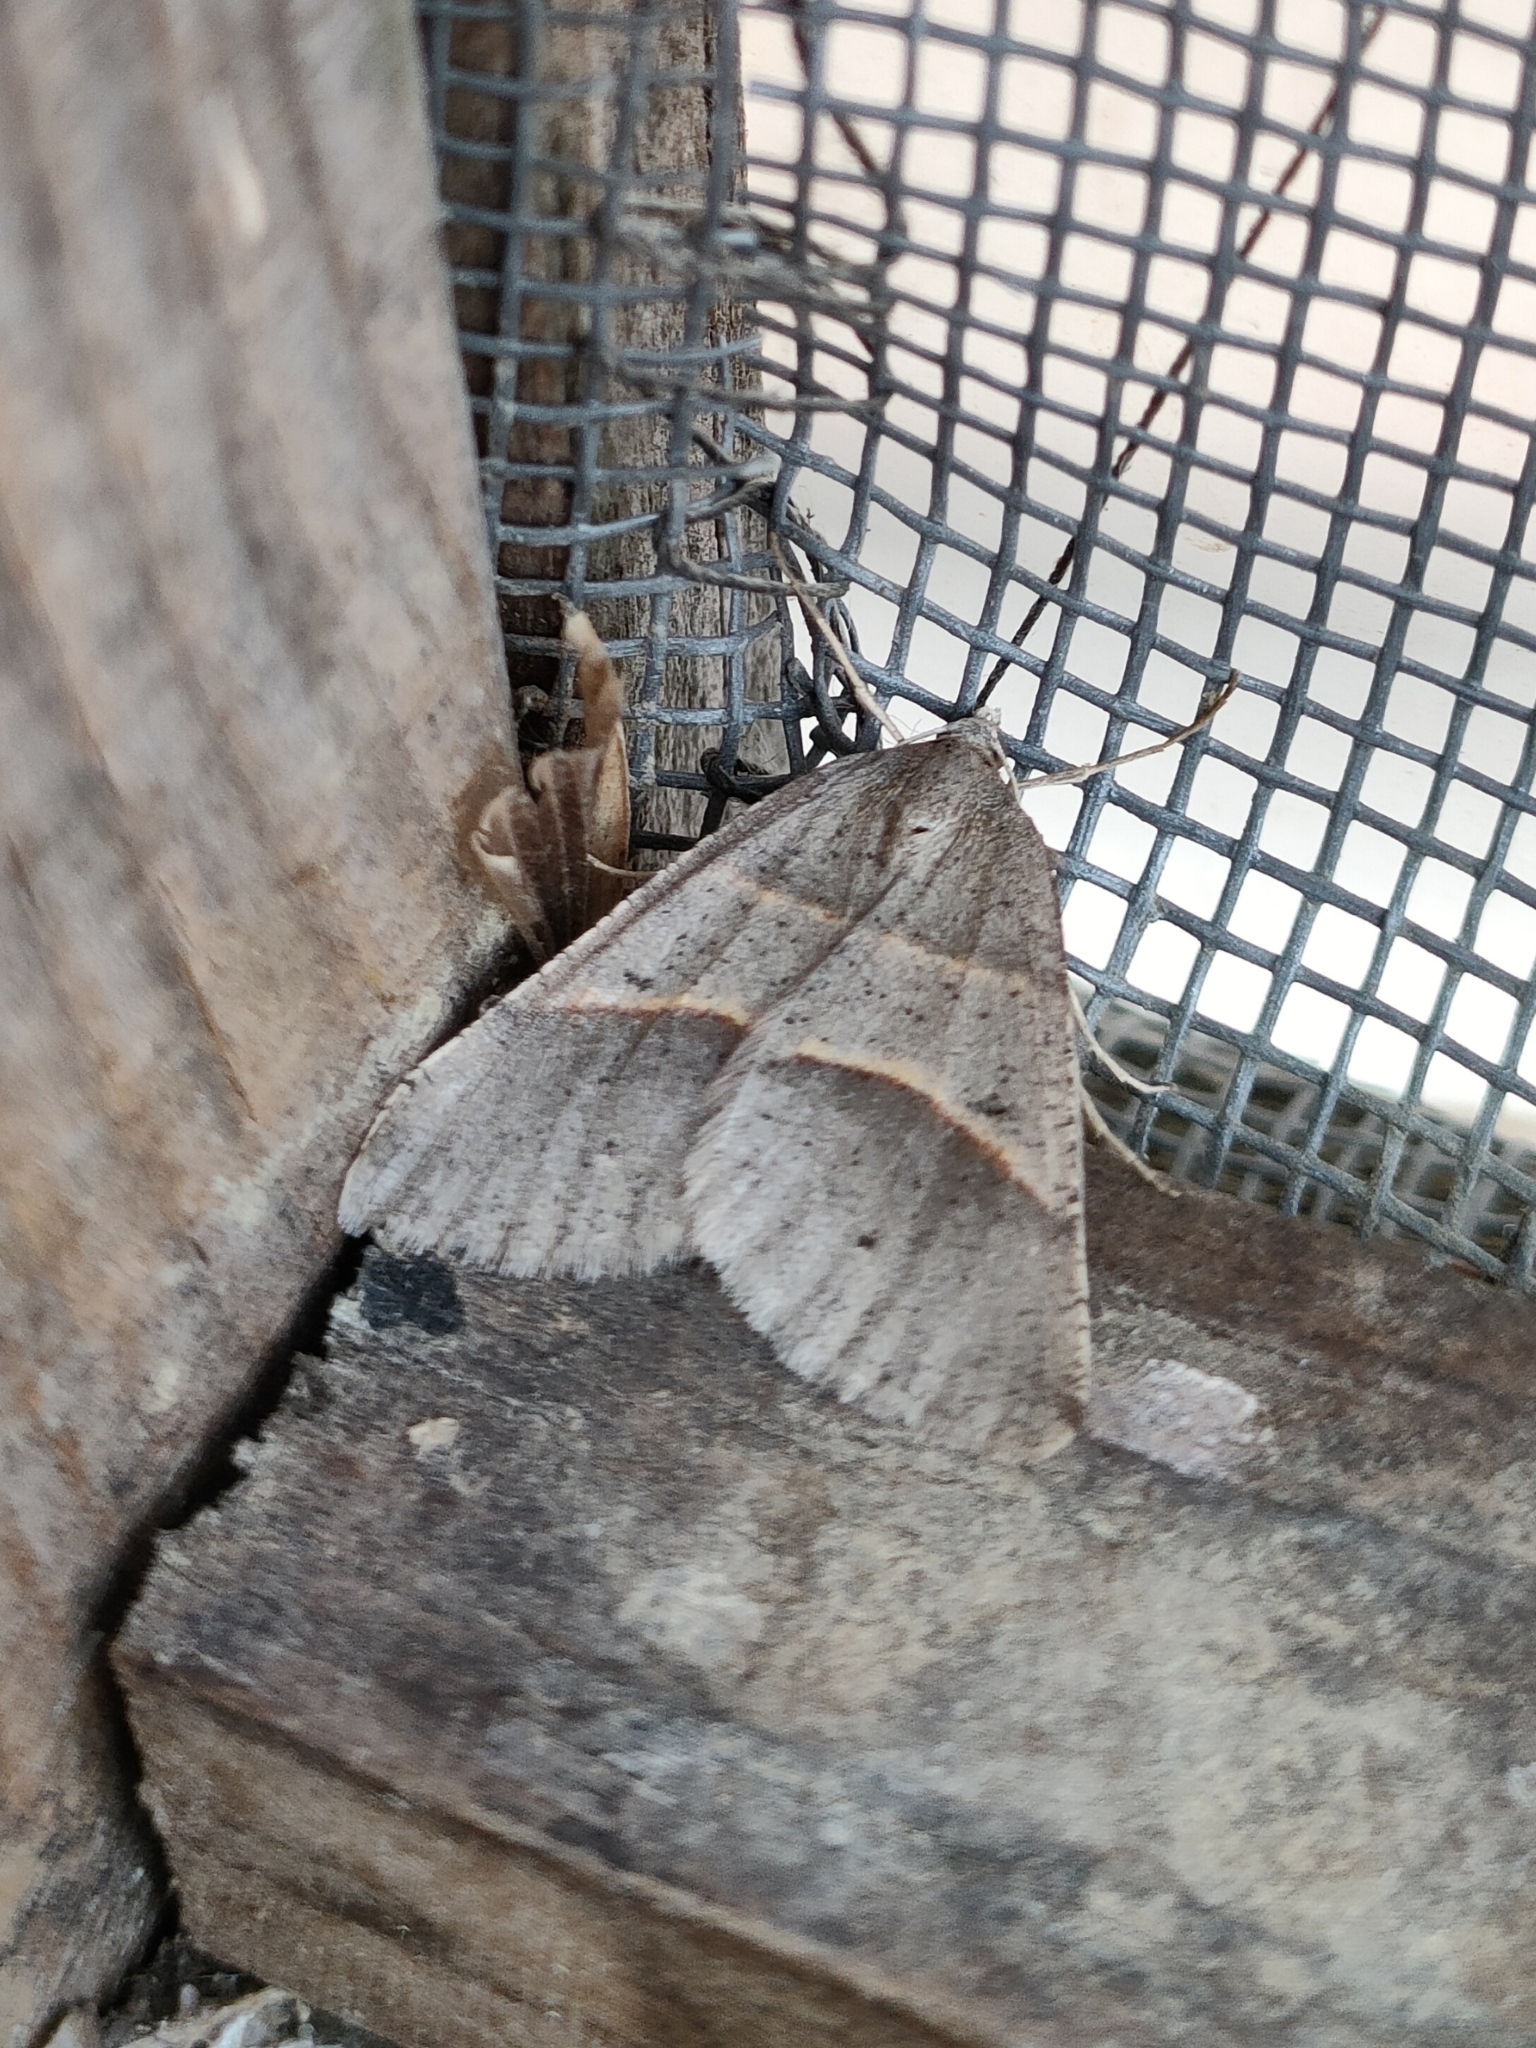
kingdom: Animalia
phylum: Arthropoda
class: Insecta
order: Lepidoptera
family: Pterophoridae
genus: Pterophorus
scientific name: Pterophorus Petrophora convergata
